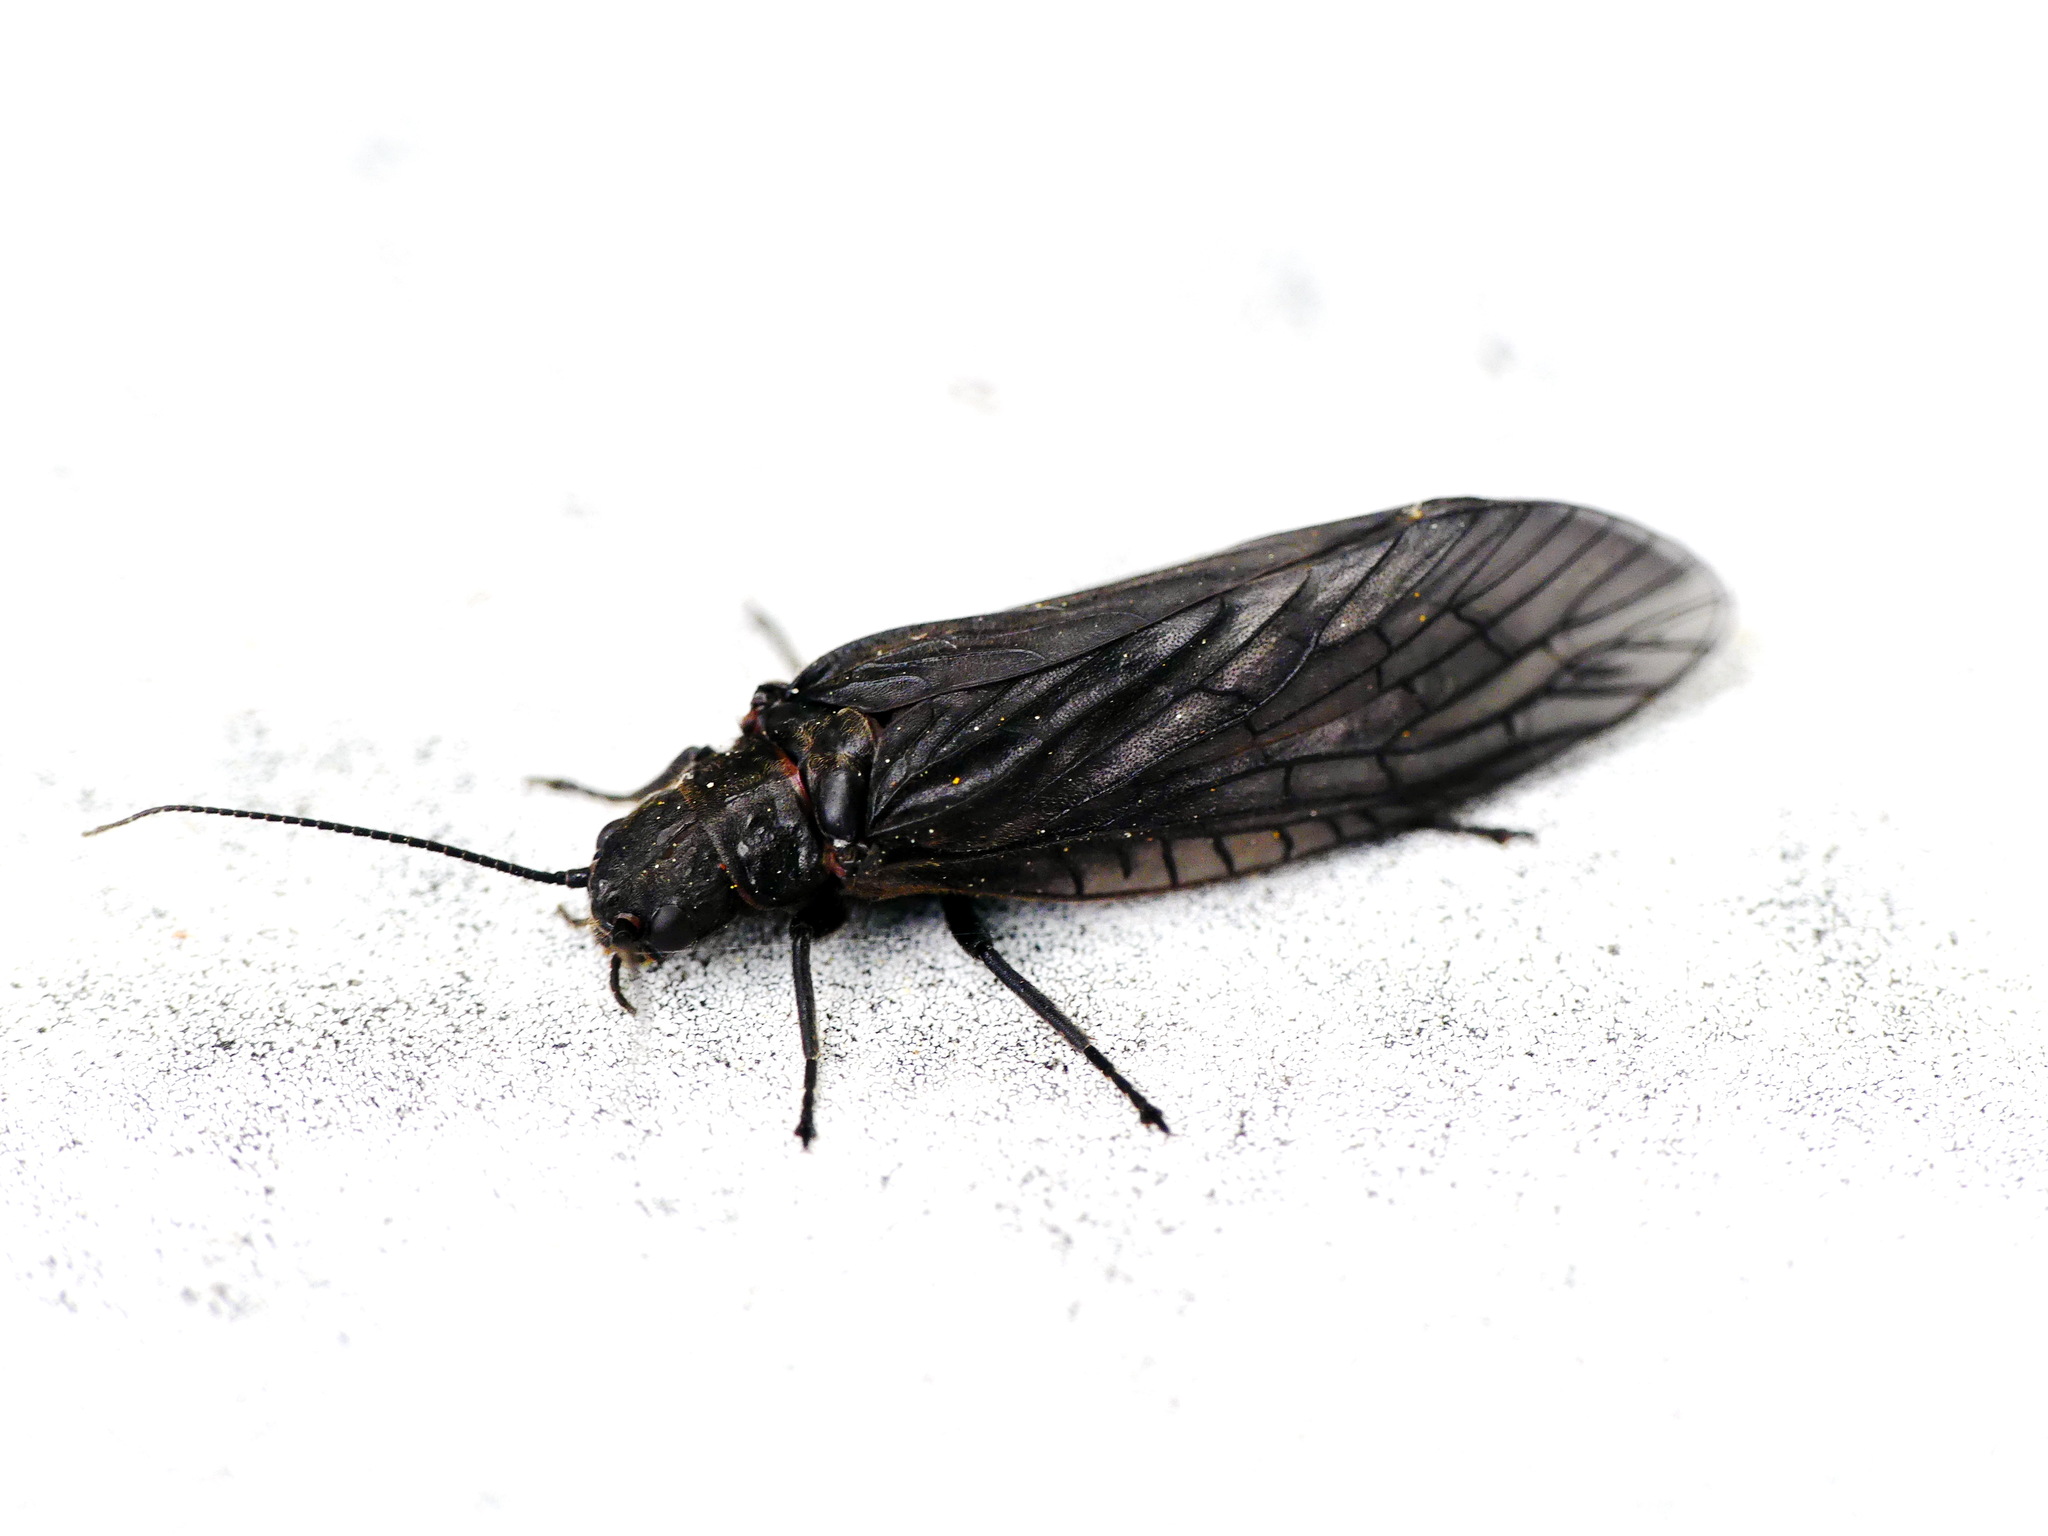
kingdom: Animalia
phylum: Arthropoda
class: Insecta
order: Megaloptera
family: Sialidae
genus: Sialis
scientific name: Sialis
